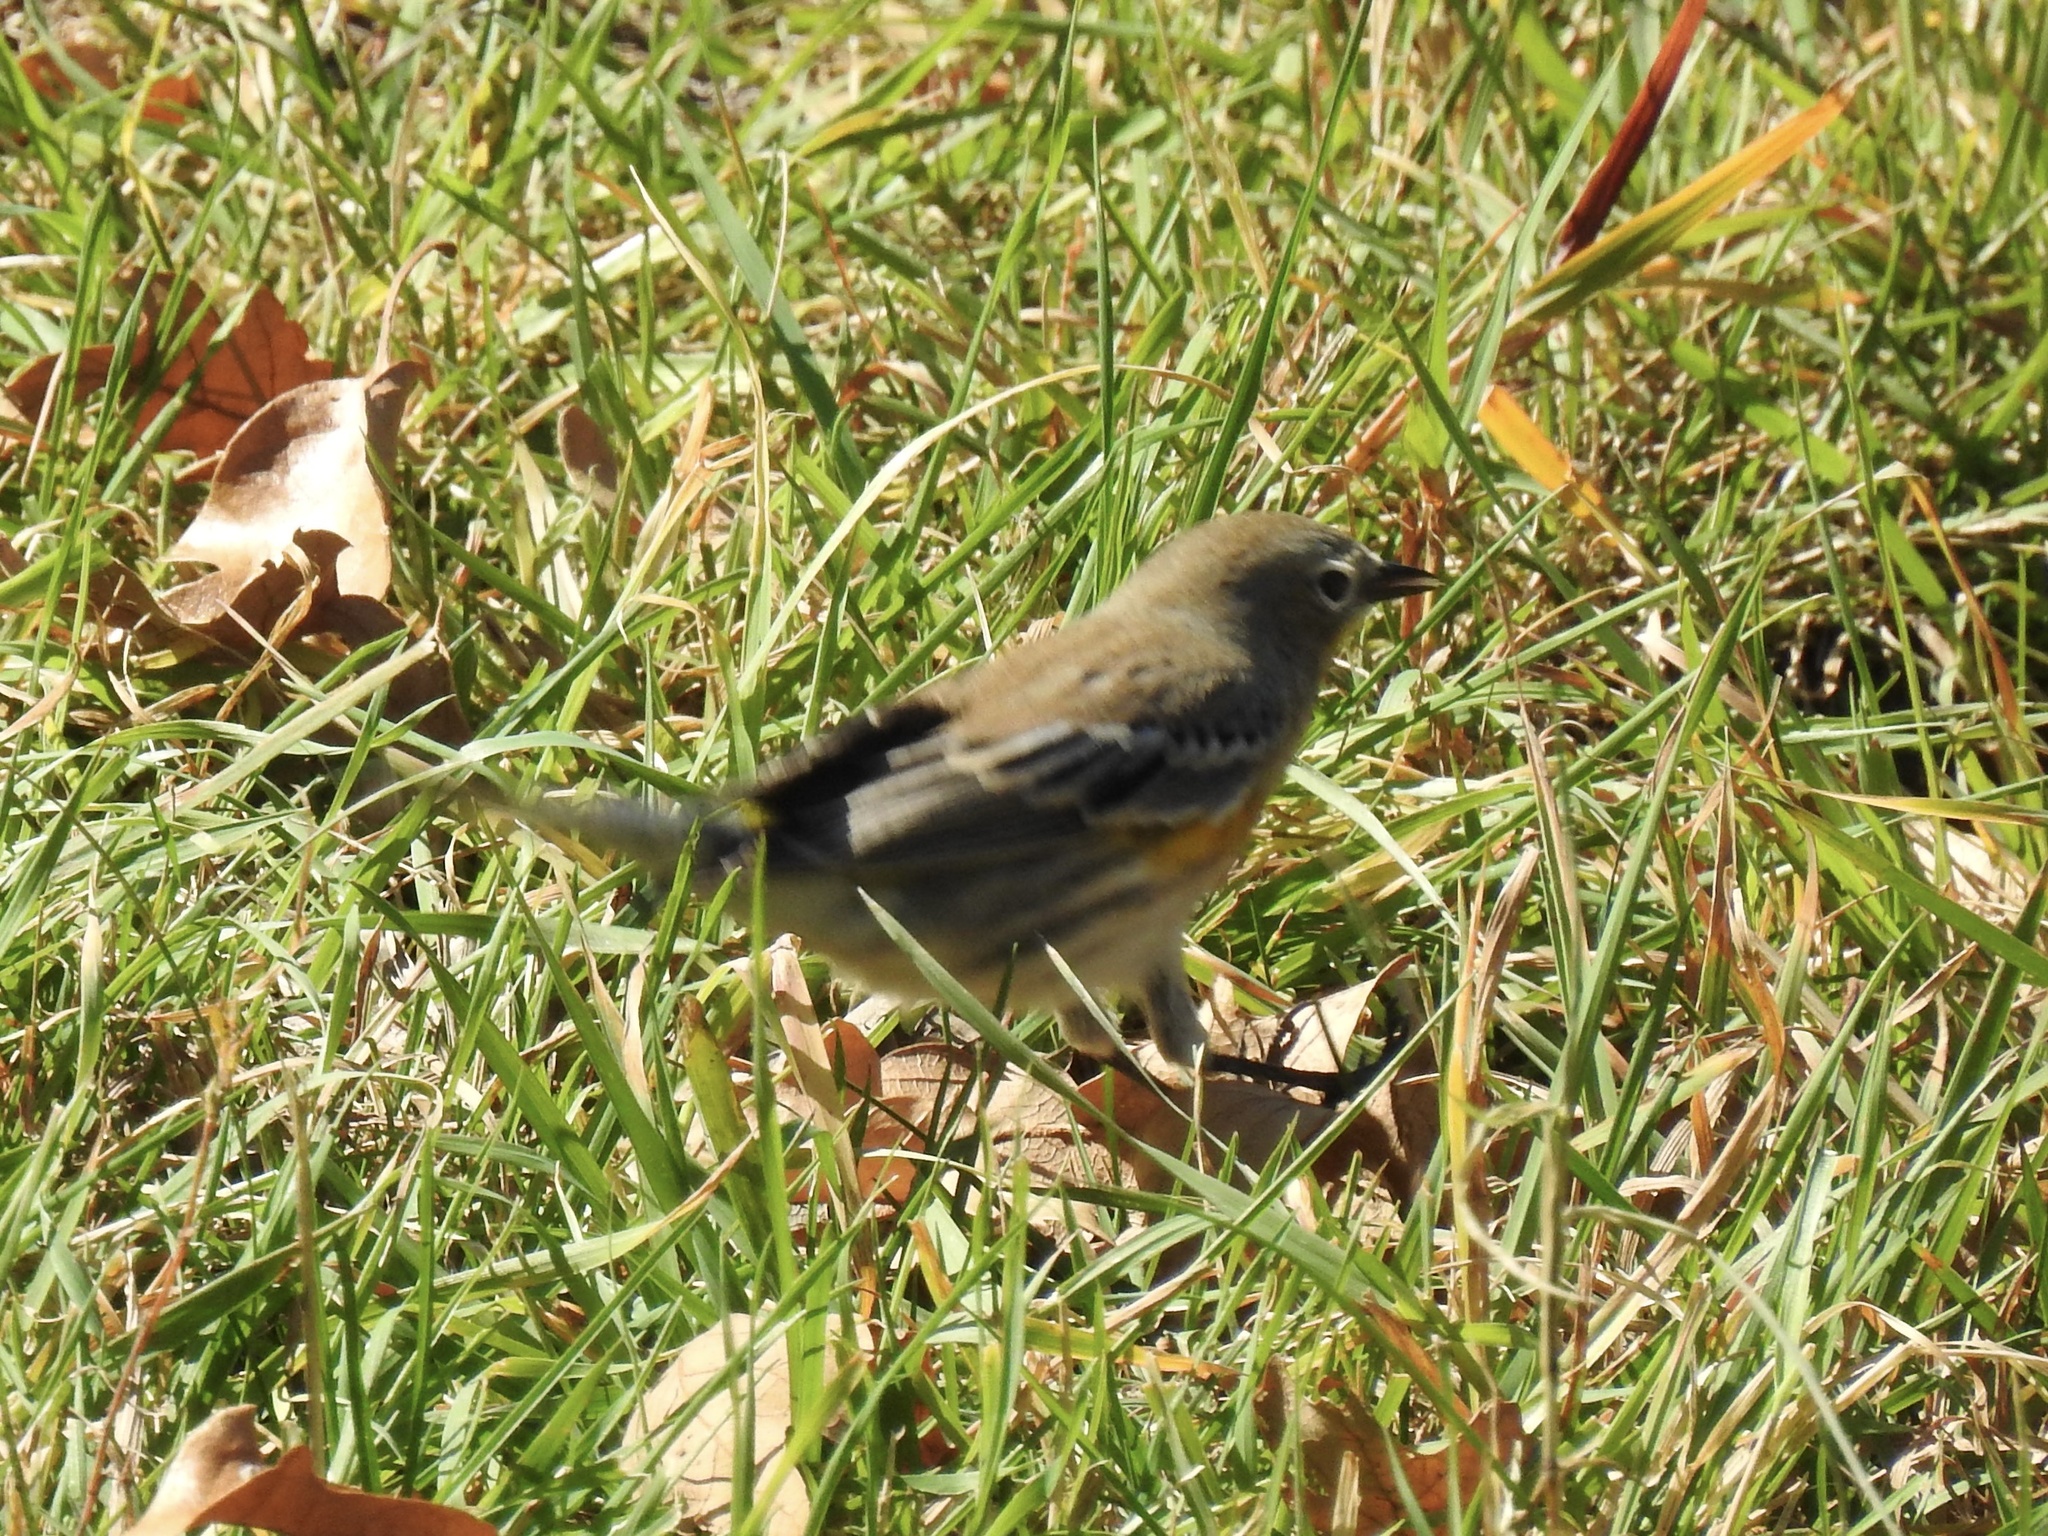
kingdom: Animalia
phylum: Chordata
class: Aves
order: Passeriformes
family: Parulidae
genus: Setophaga
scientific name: Setophaga coronata
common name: Myrtle warbler
